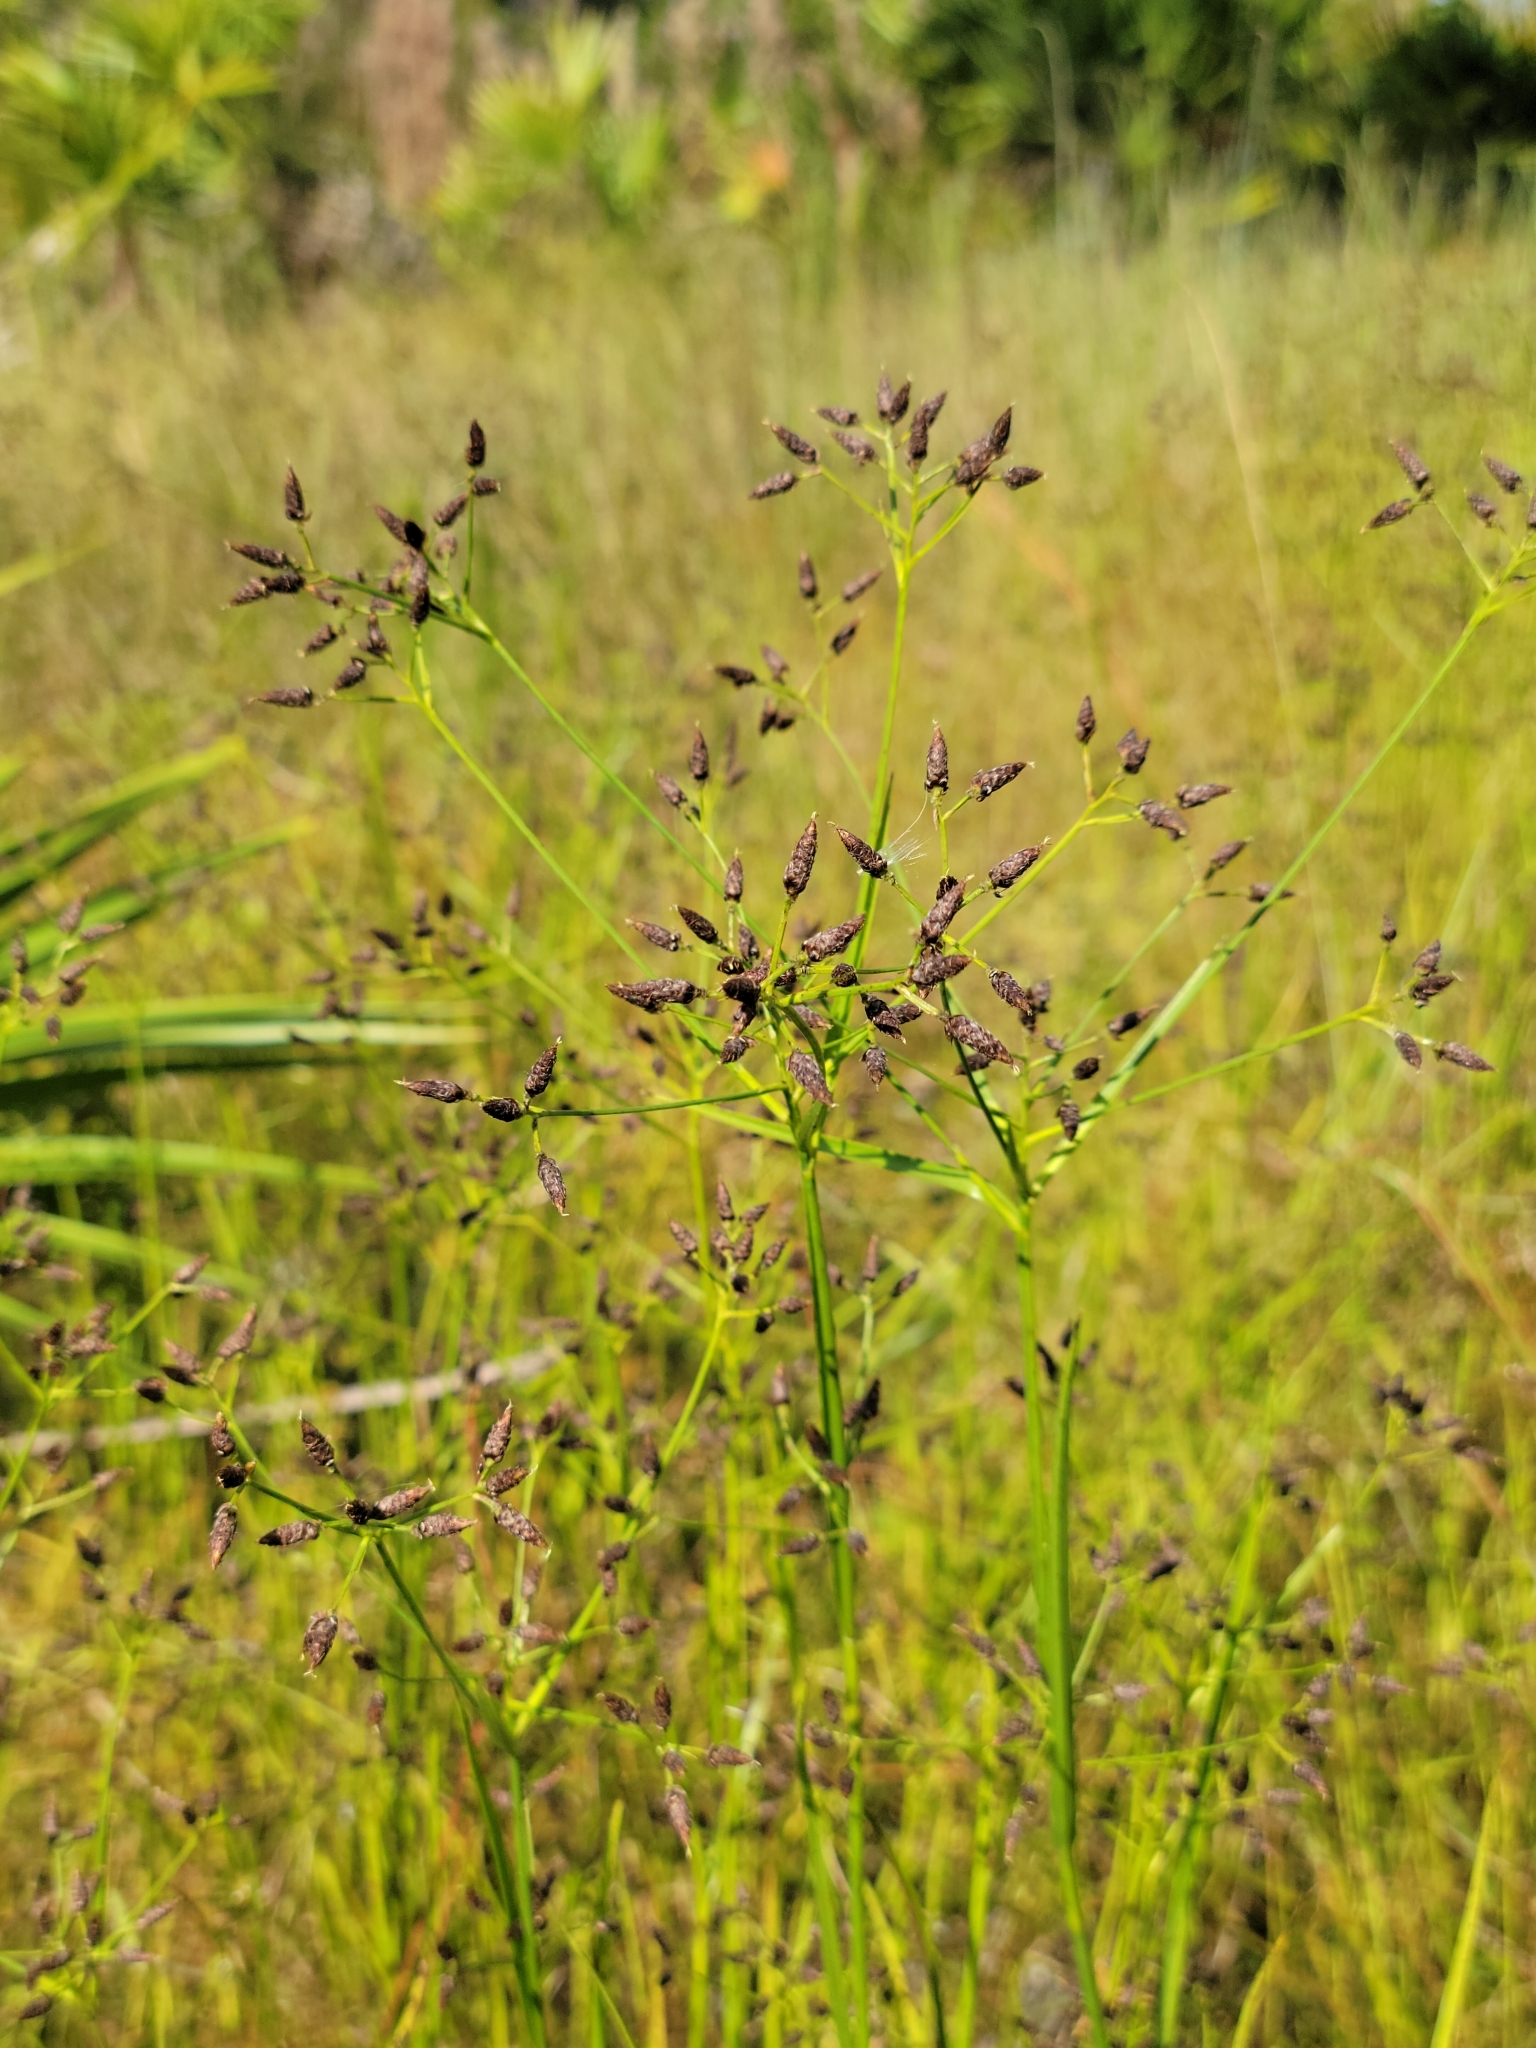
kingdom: Plantae
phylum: Tracheophyta
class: Liliopsida
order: Poales
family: Cyperaceae
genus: Rhynchospora
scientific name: Rhynchospora nitens
